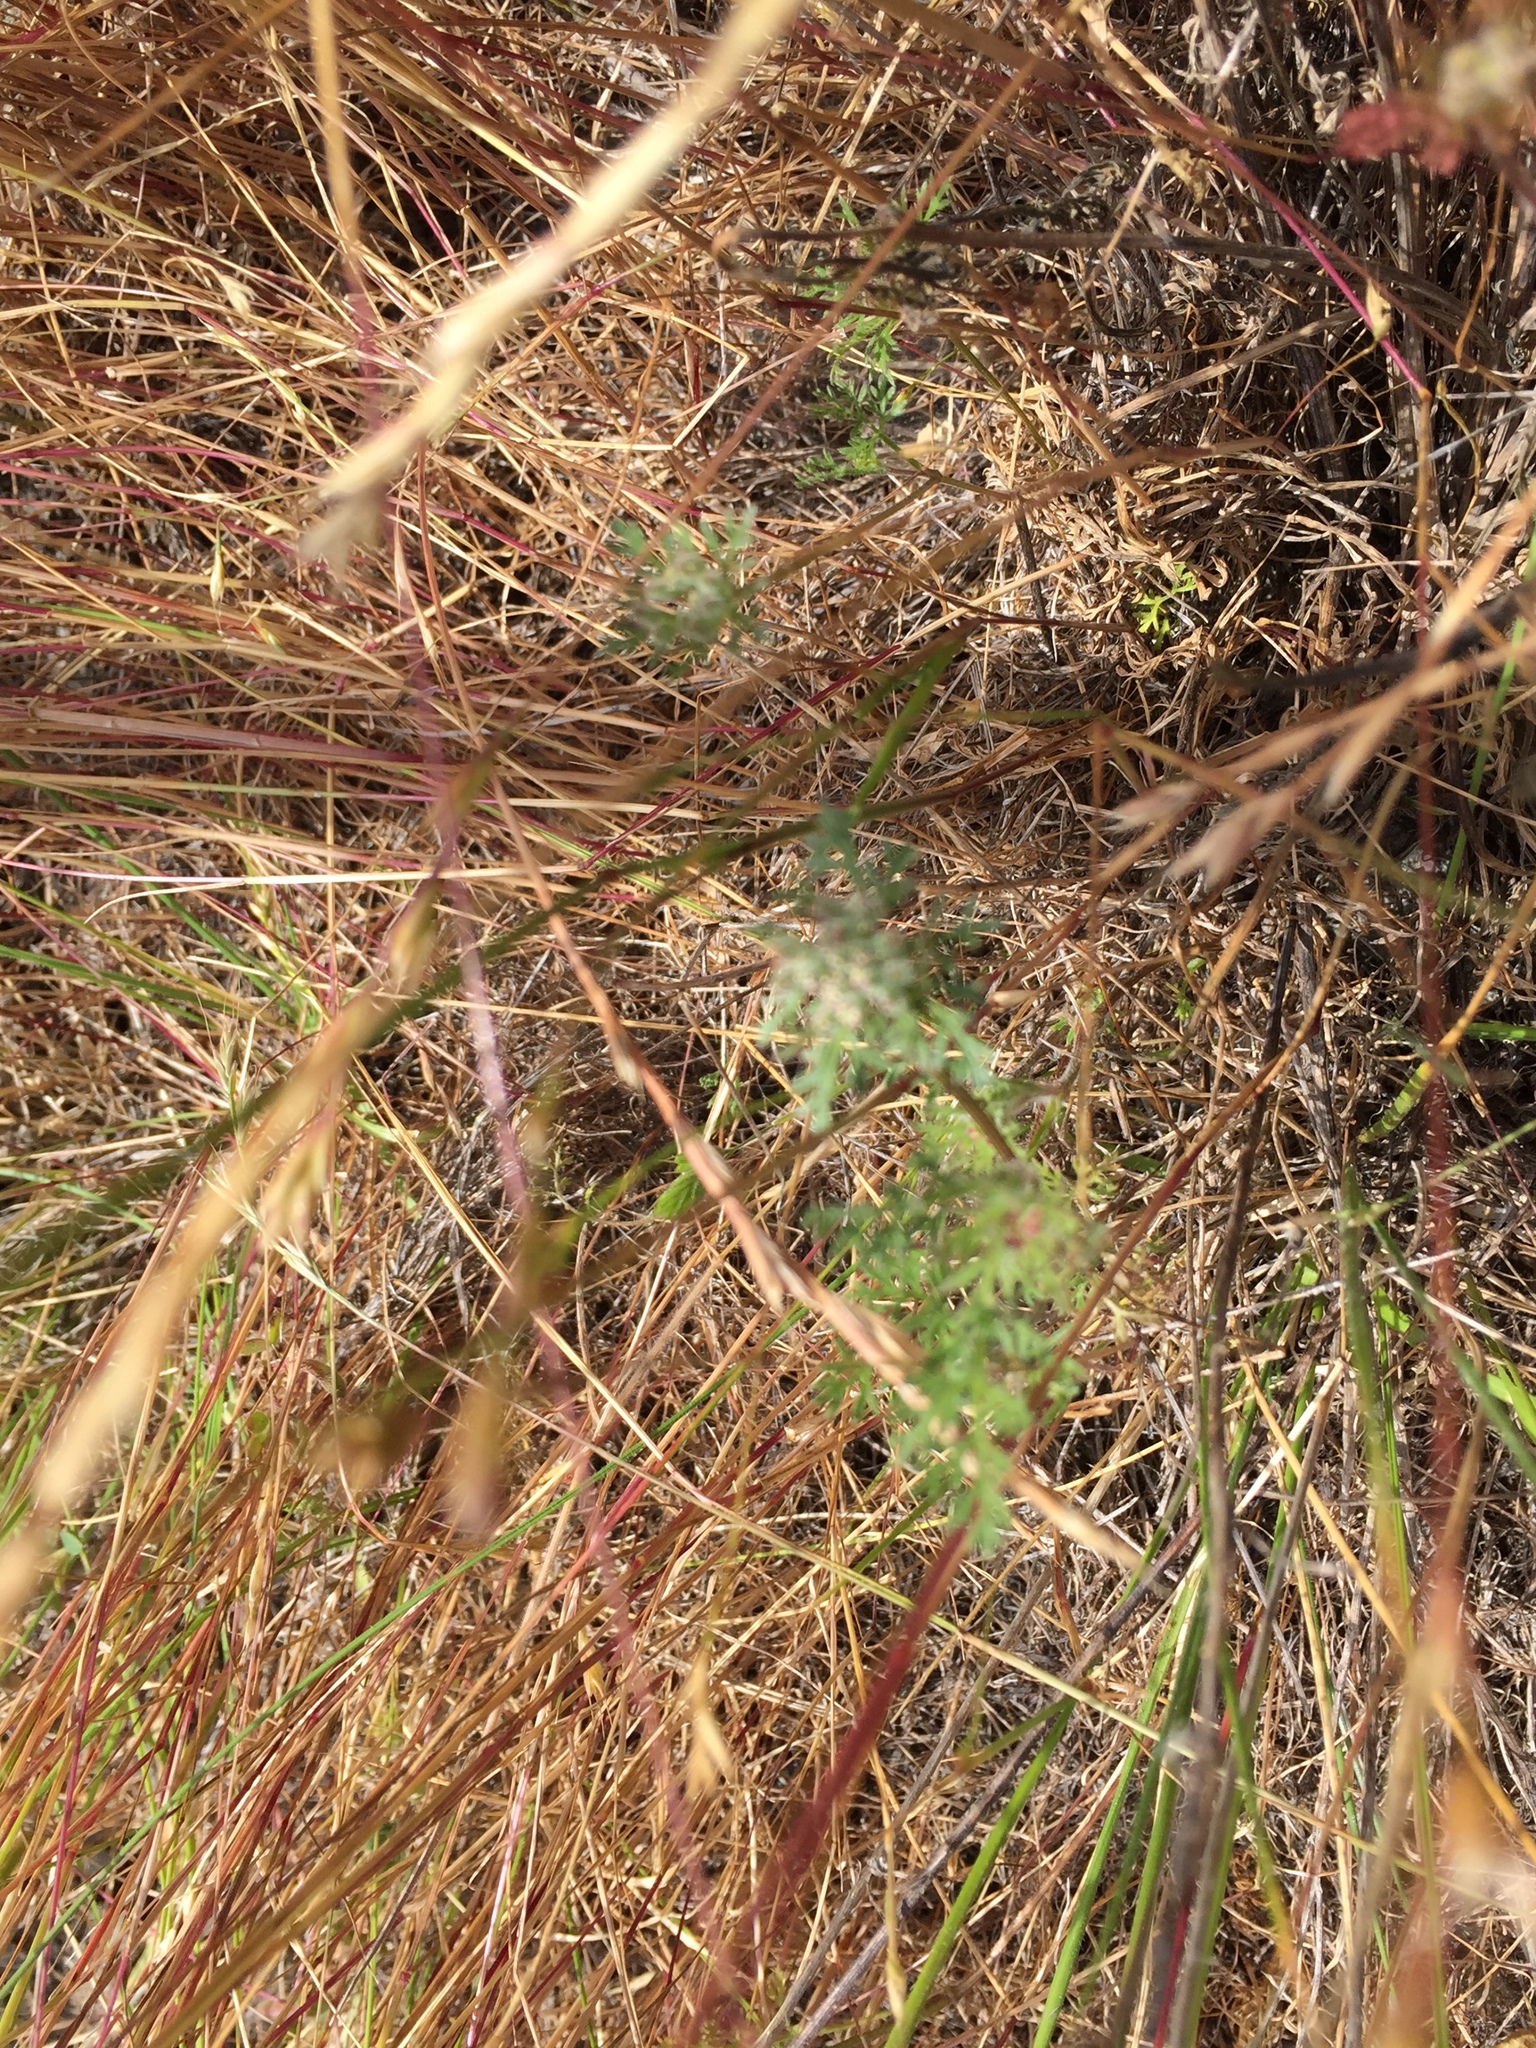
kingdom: Plantae
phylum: Tracheophyta
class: Magnoliopsida
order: Apiales
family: Apiaceae
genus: Daucus
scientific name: Daucus pusillus
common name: Southwest wild carrot
